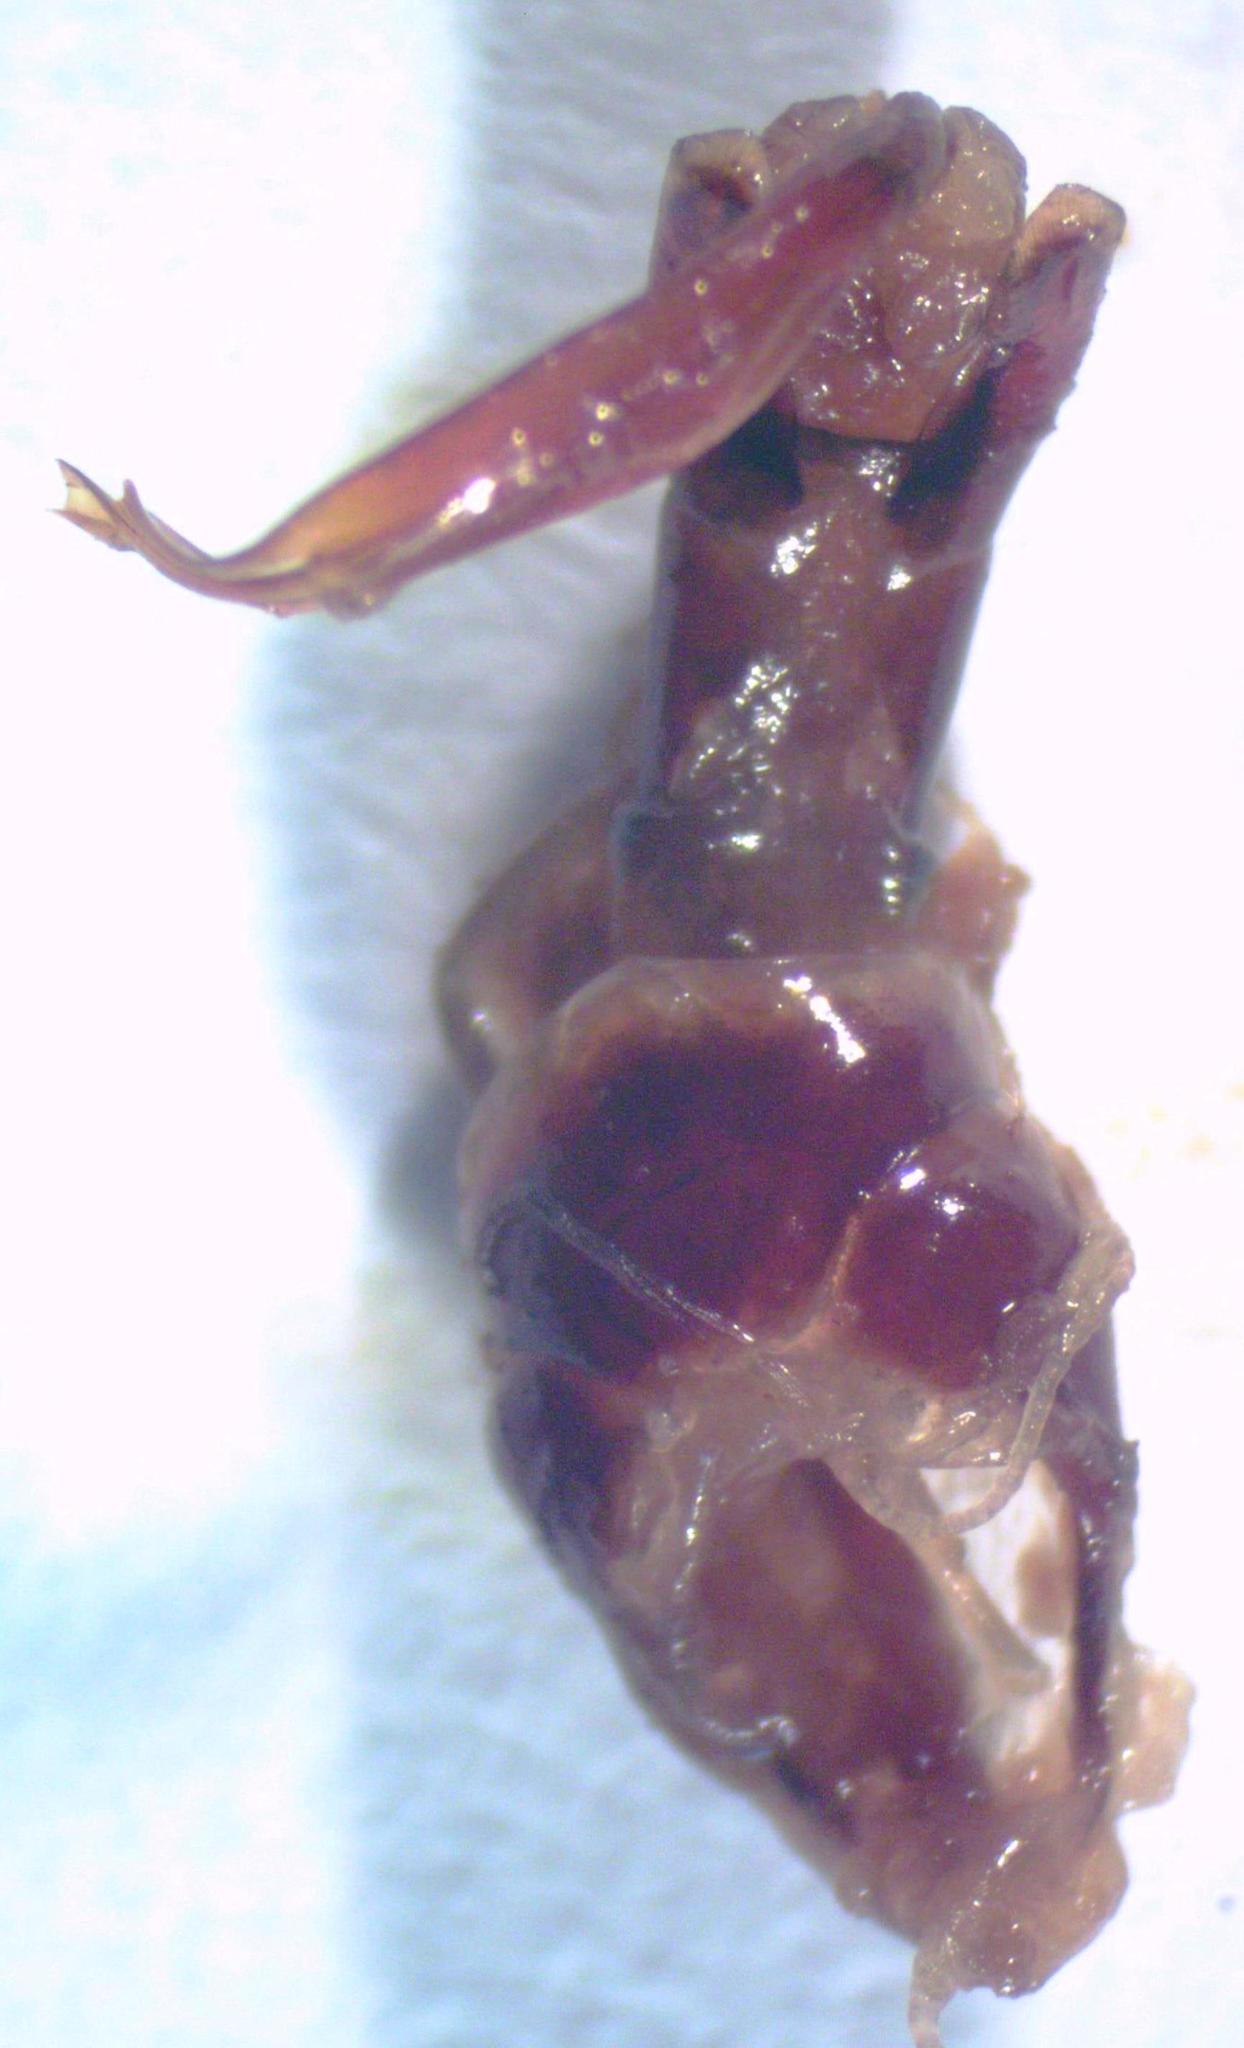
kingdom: Animalia
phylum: Arthropoda
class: Insecta
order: Coleoptera
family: Lucanidae
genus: Dorcus
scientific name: Dorcus yaksha
